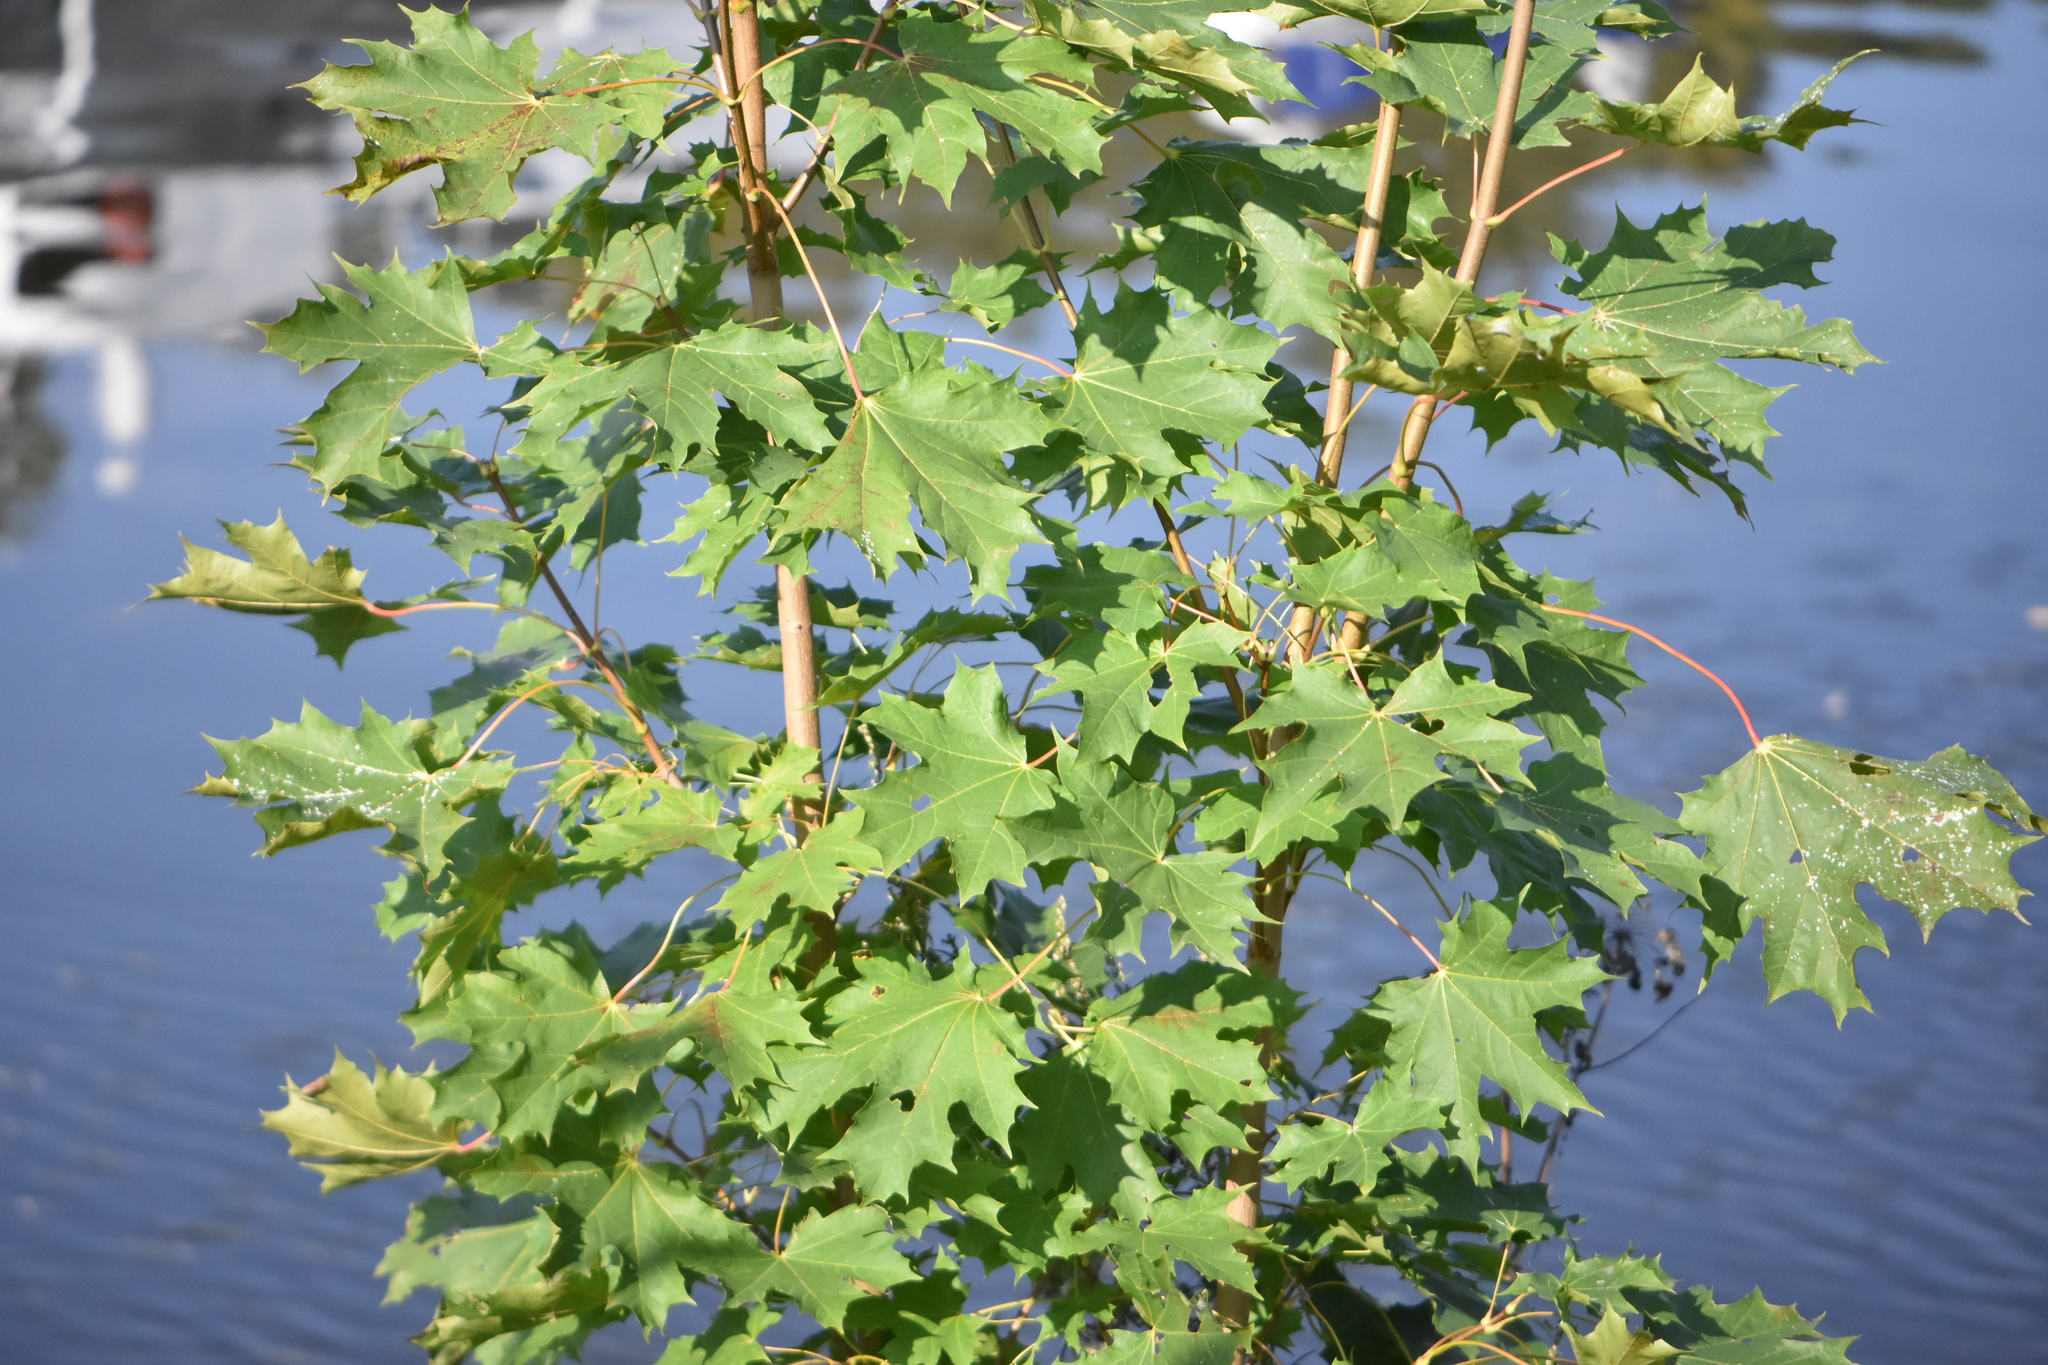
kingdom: Plantae
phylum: Tracheophyta
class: Magnoliopsida
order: Sapindales
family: Sapindaceae
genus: Acer
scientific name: Acer platanoides
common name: Norway maple
